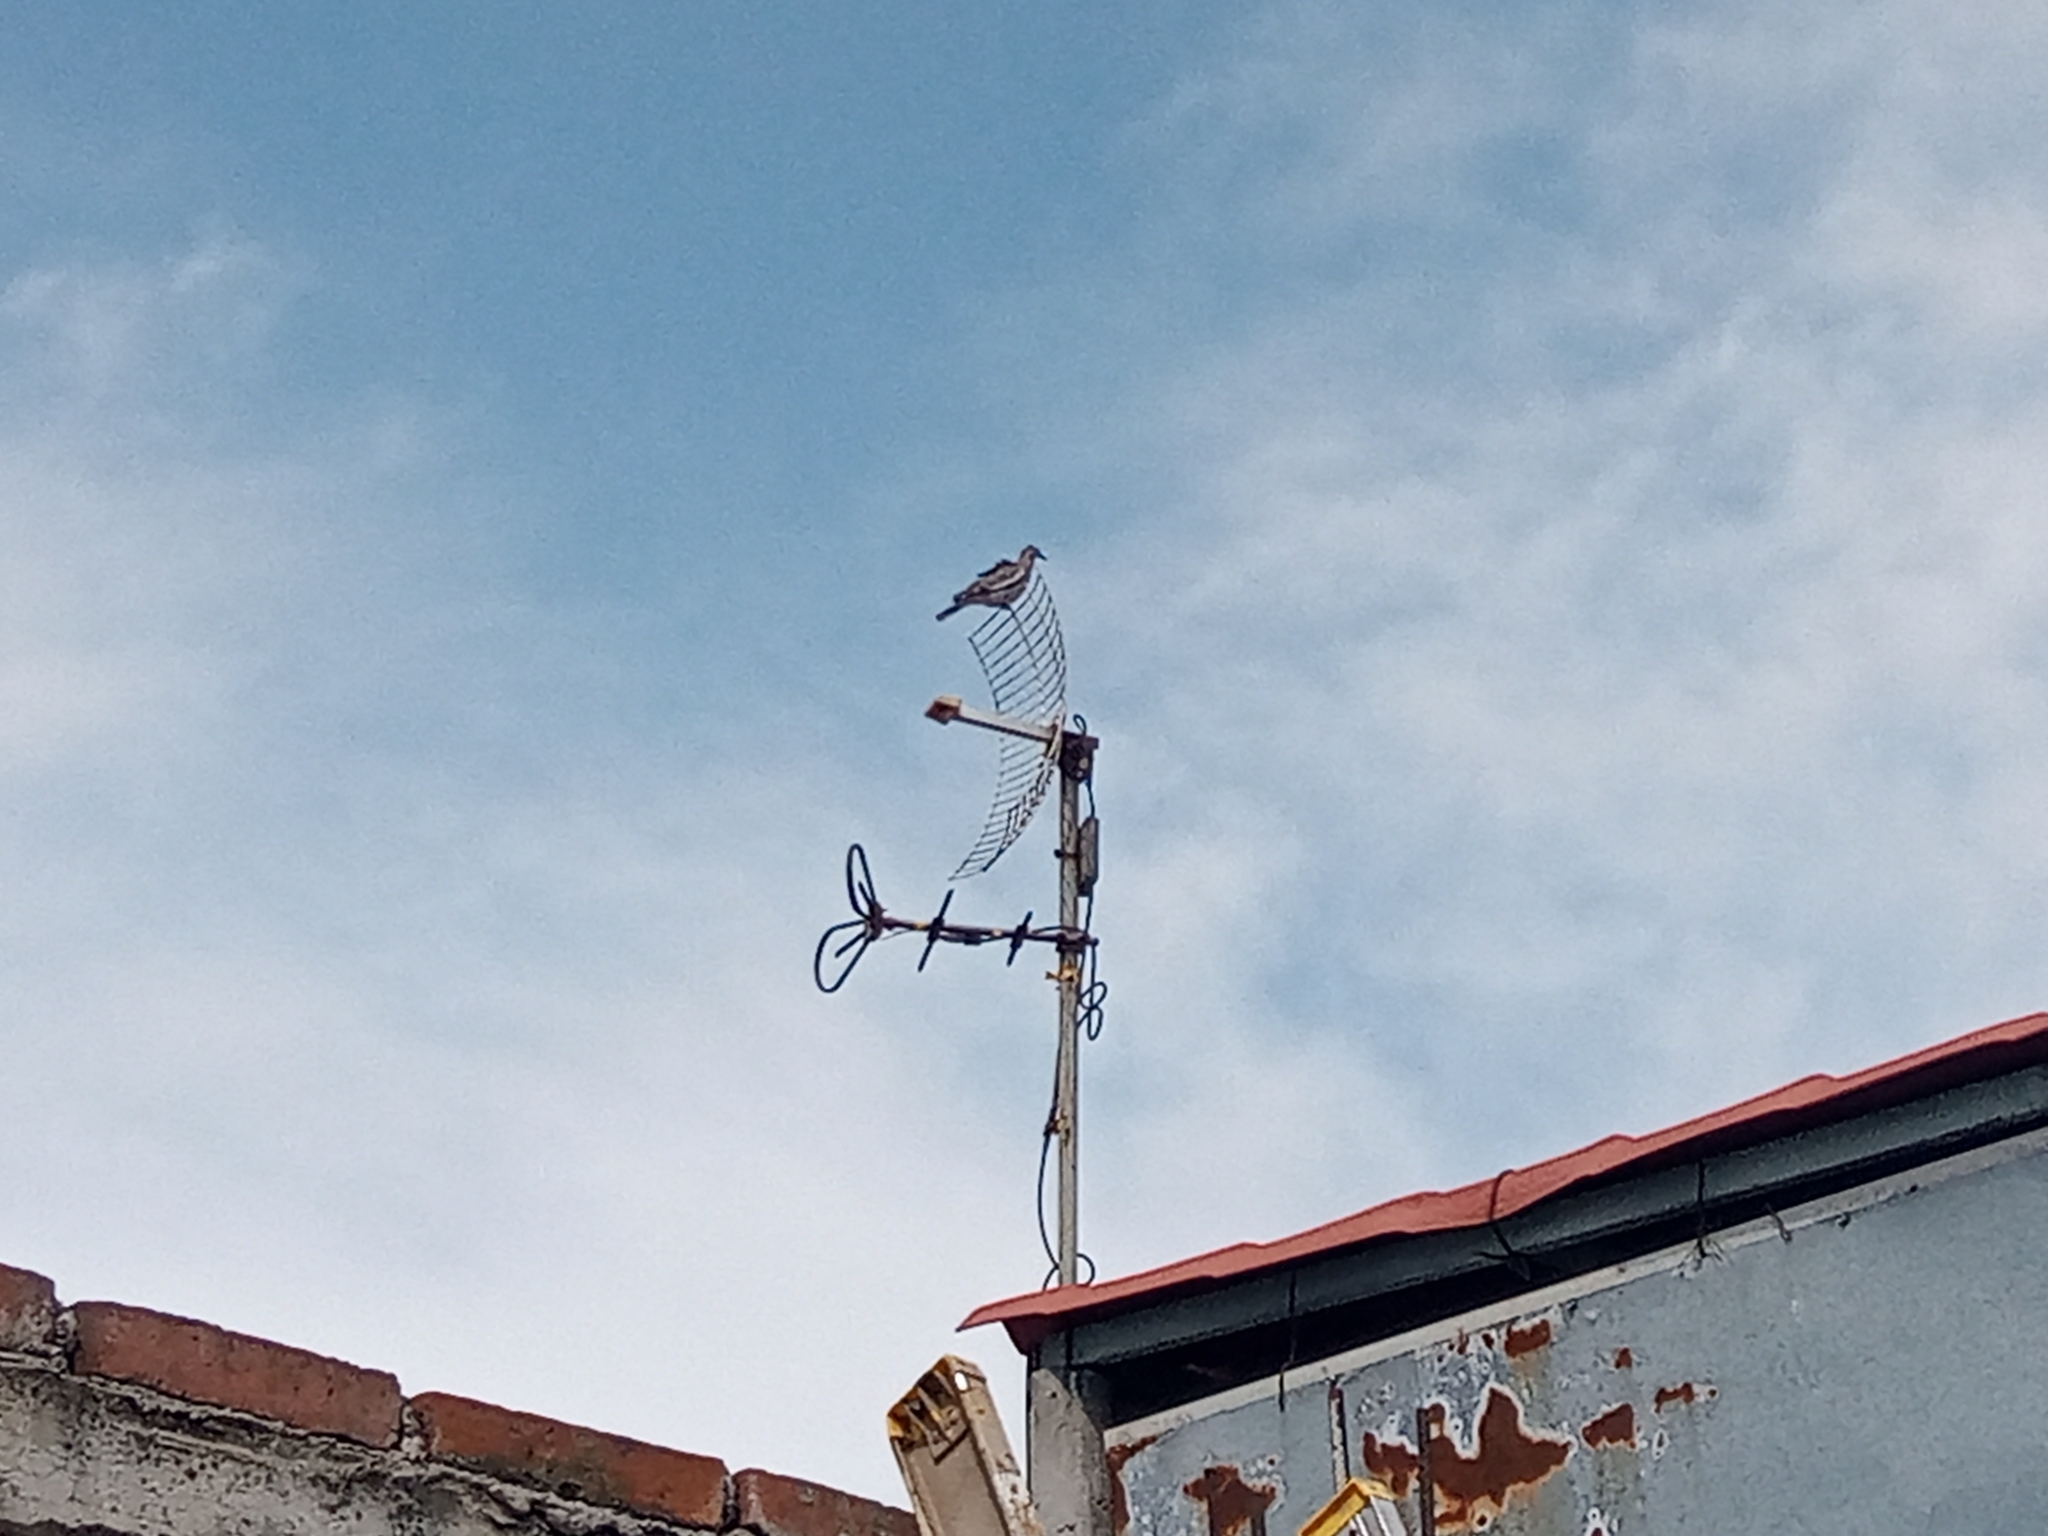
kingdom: Animalia
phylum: Chordata
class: Aves
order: Columbiformes
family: Columbidae
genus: Zenaida
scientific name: Zenaida asiatica
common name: White-winged dove
